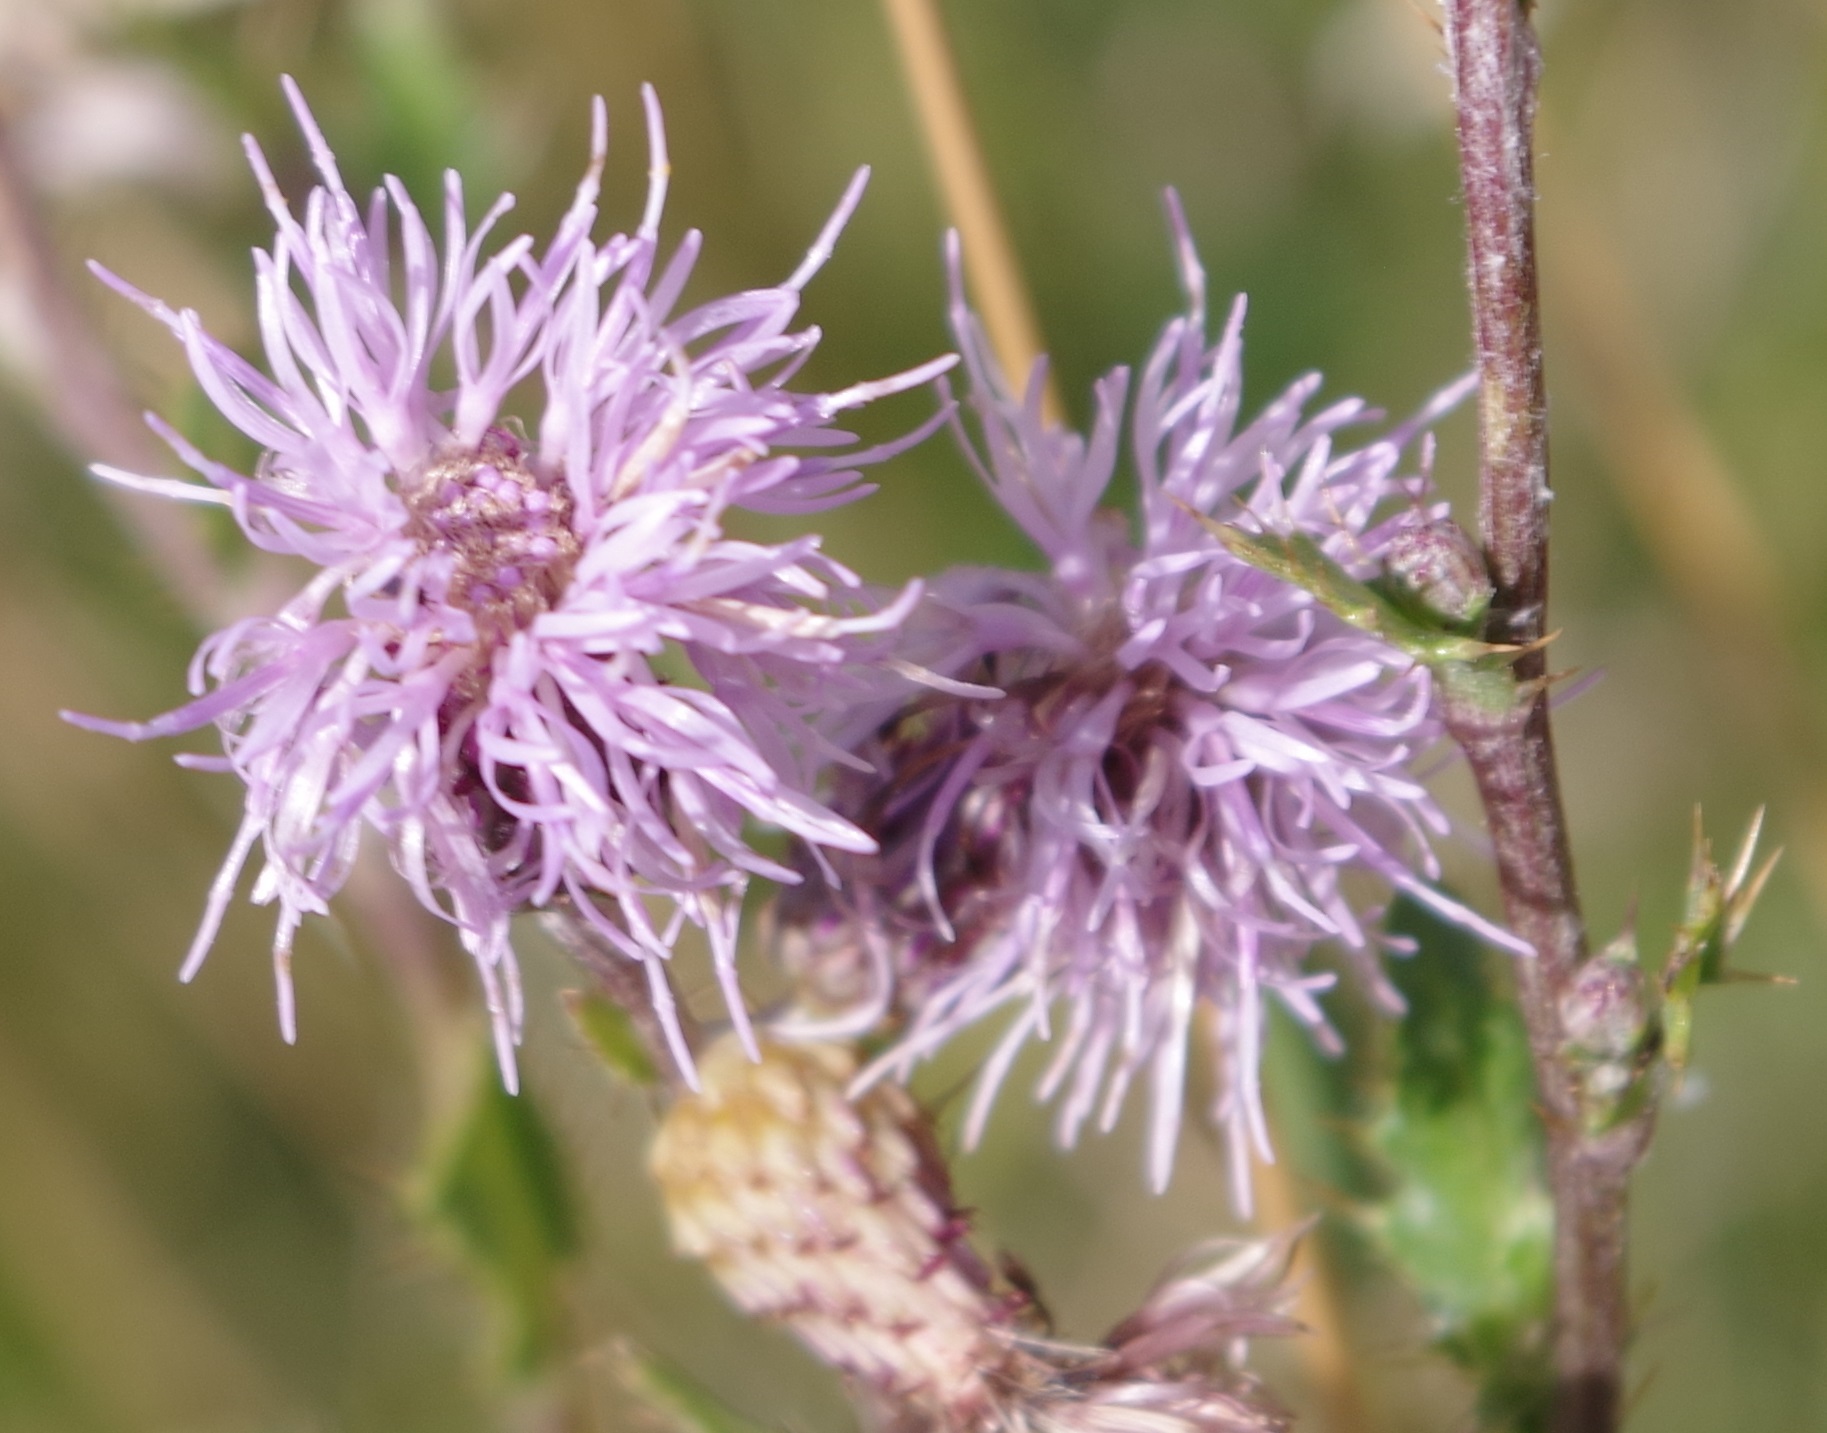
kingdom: Plantae
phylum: Tracheophyta
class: Magnoliopsida
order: Asterales
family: Asteraceae
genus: Cirsium
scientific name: Cirsium arvense
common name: Creeping thistle
